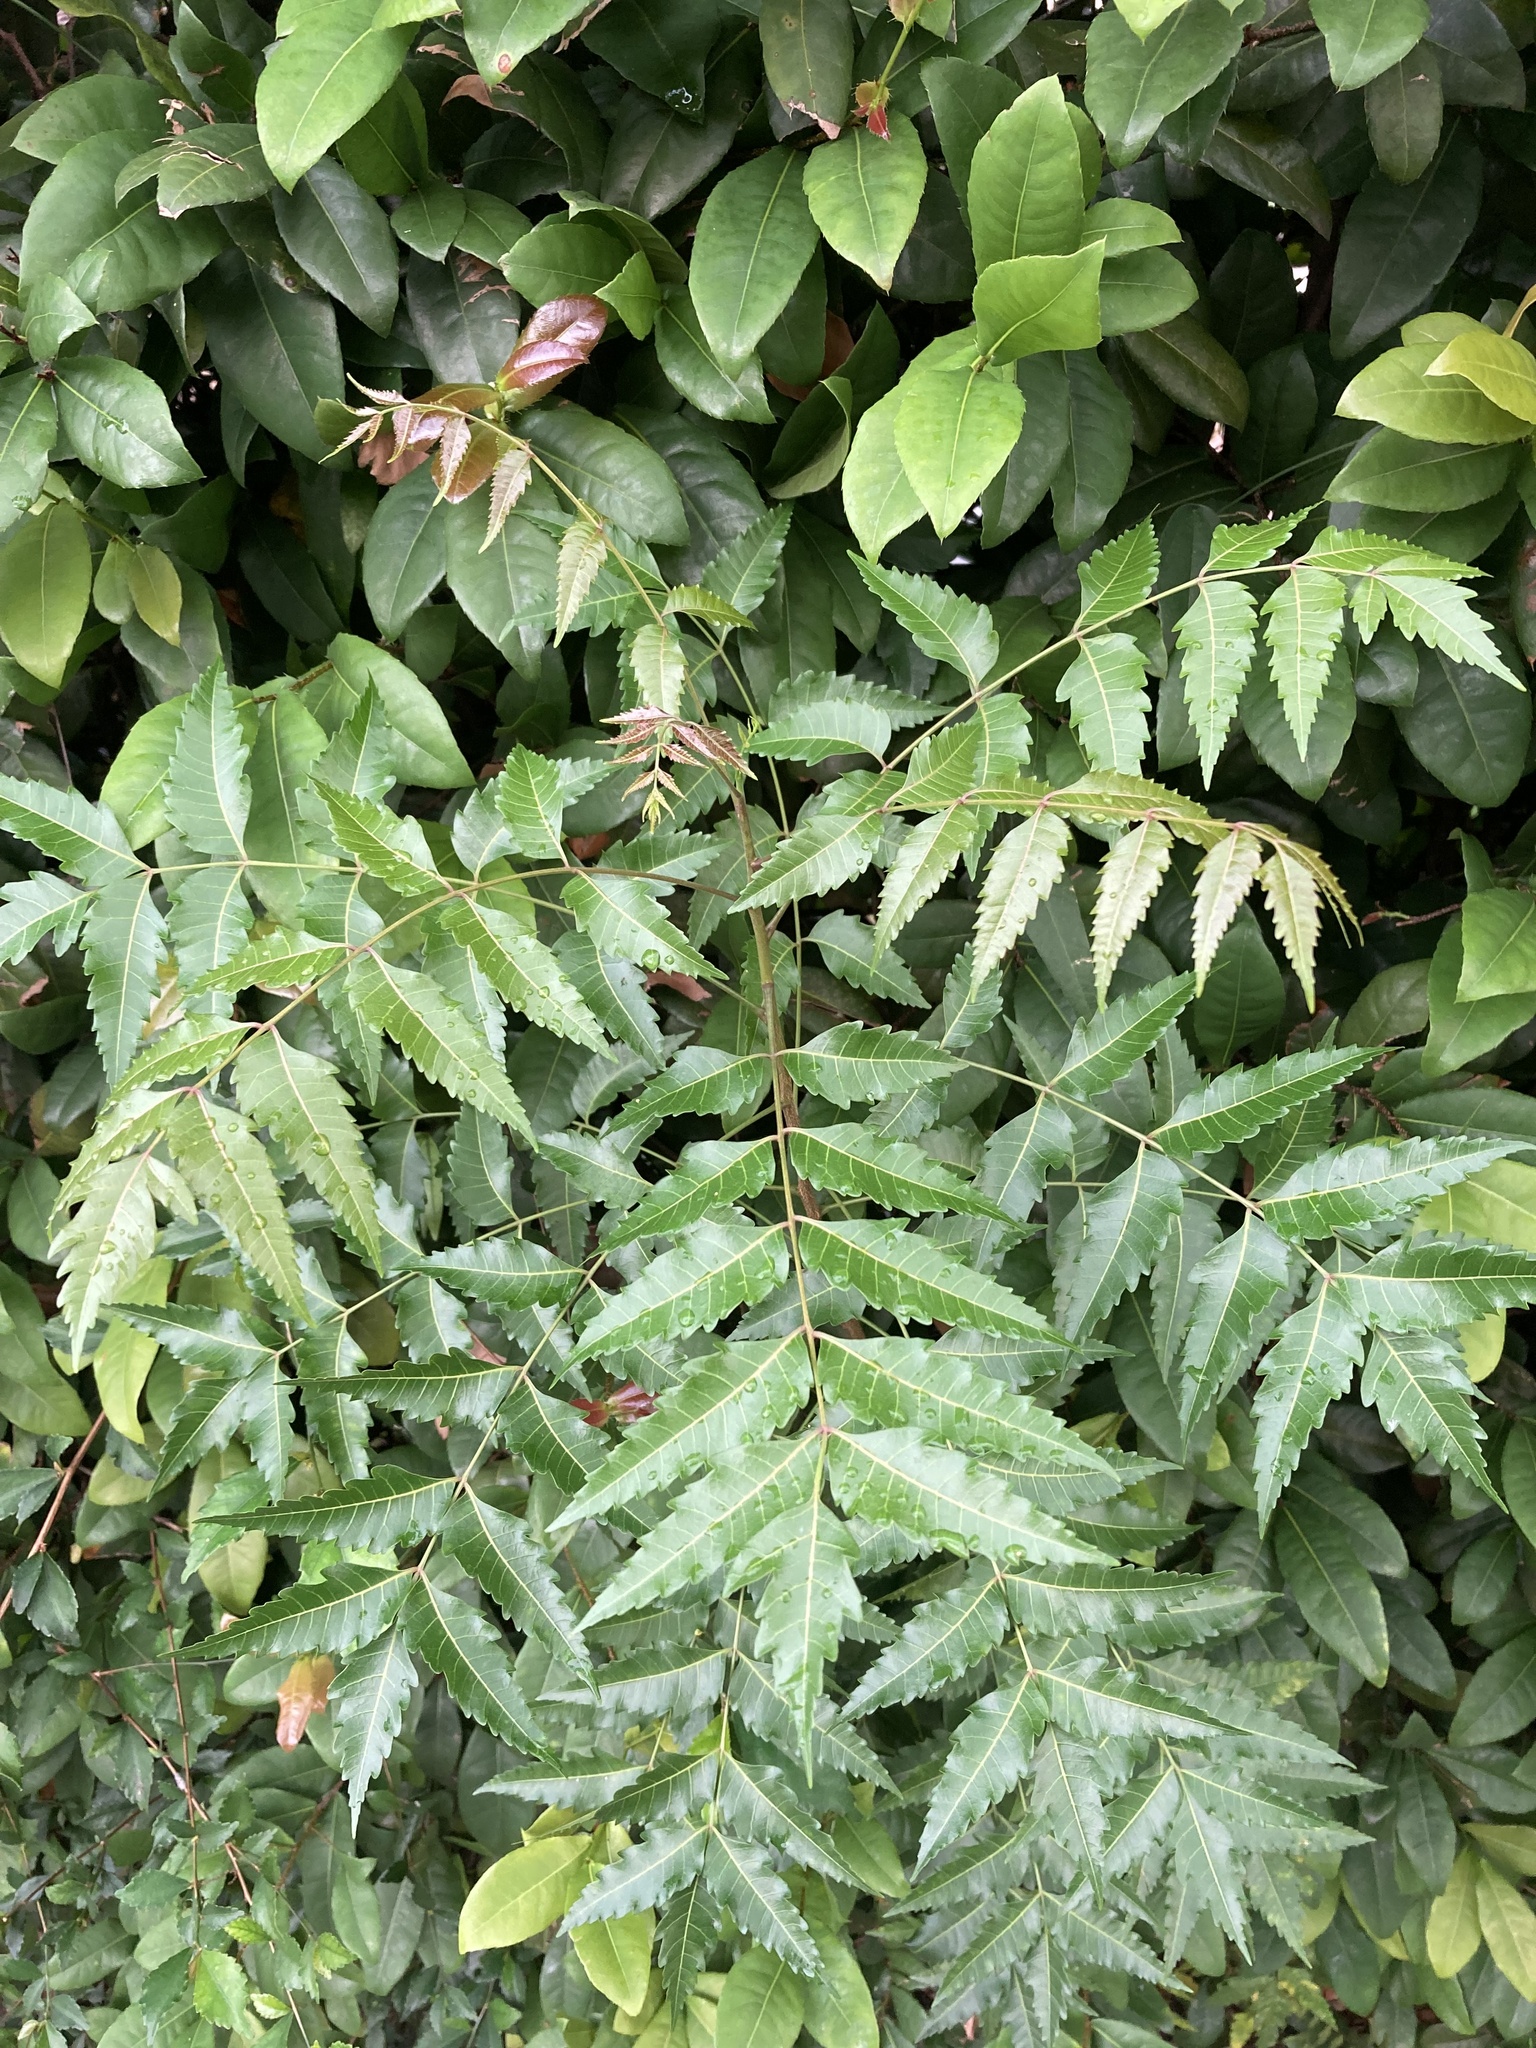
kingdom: Plantae
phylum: Tracheophyta
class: Magnoliopsida
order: Sapindales
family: Meliaceae
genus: Azadirachta
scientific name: Azadirachta indica
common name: Neem
